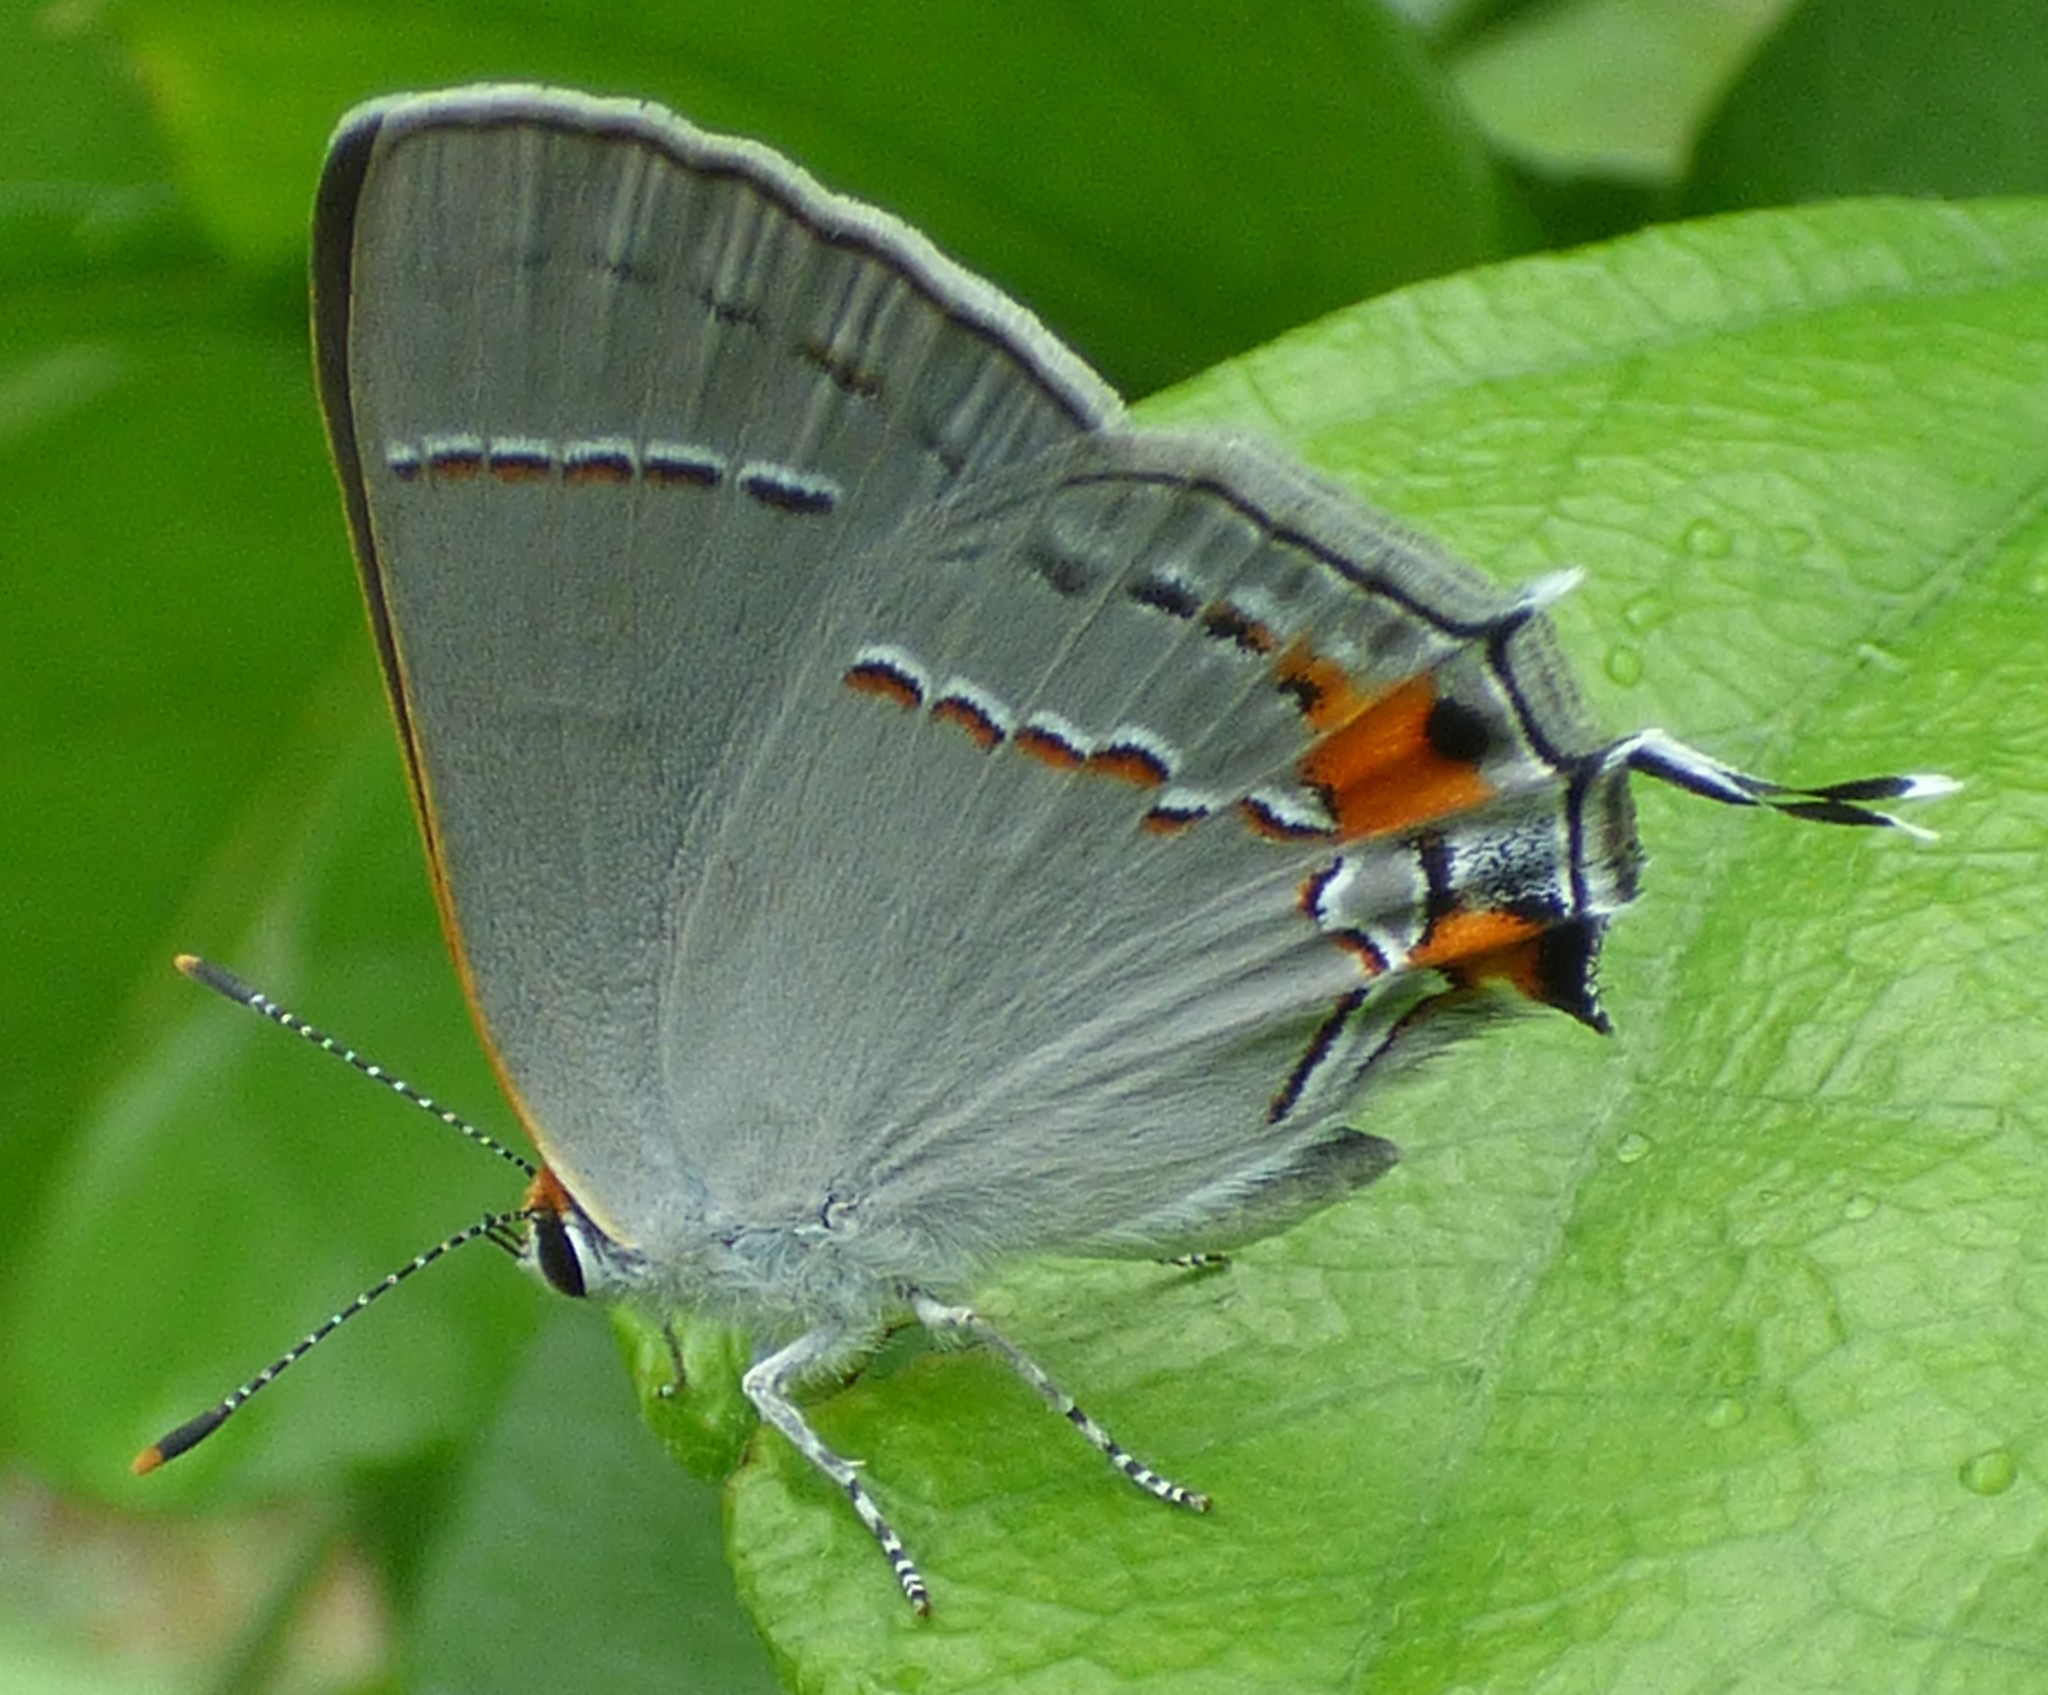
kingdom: Animalia
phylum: Arthropoda
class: Insecta
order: Lepidoptera
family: Lycaenidae
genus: Strymon
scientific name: Strymon melinus
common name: Gray hairstreak
